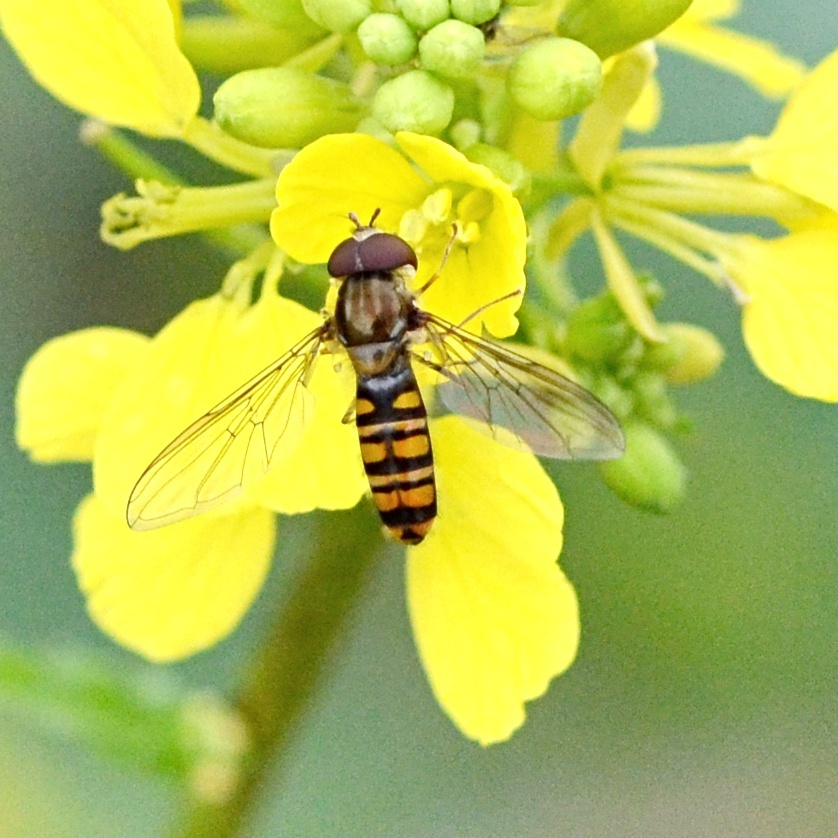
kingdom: Animalia
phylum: Arthropoda
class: Insecta
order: Diptera
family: Syrphidae
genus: Episyrphus
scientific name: Episyrphus balteatus
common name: Marmalade hoverfly
